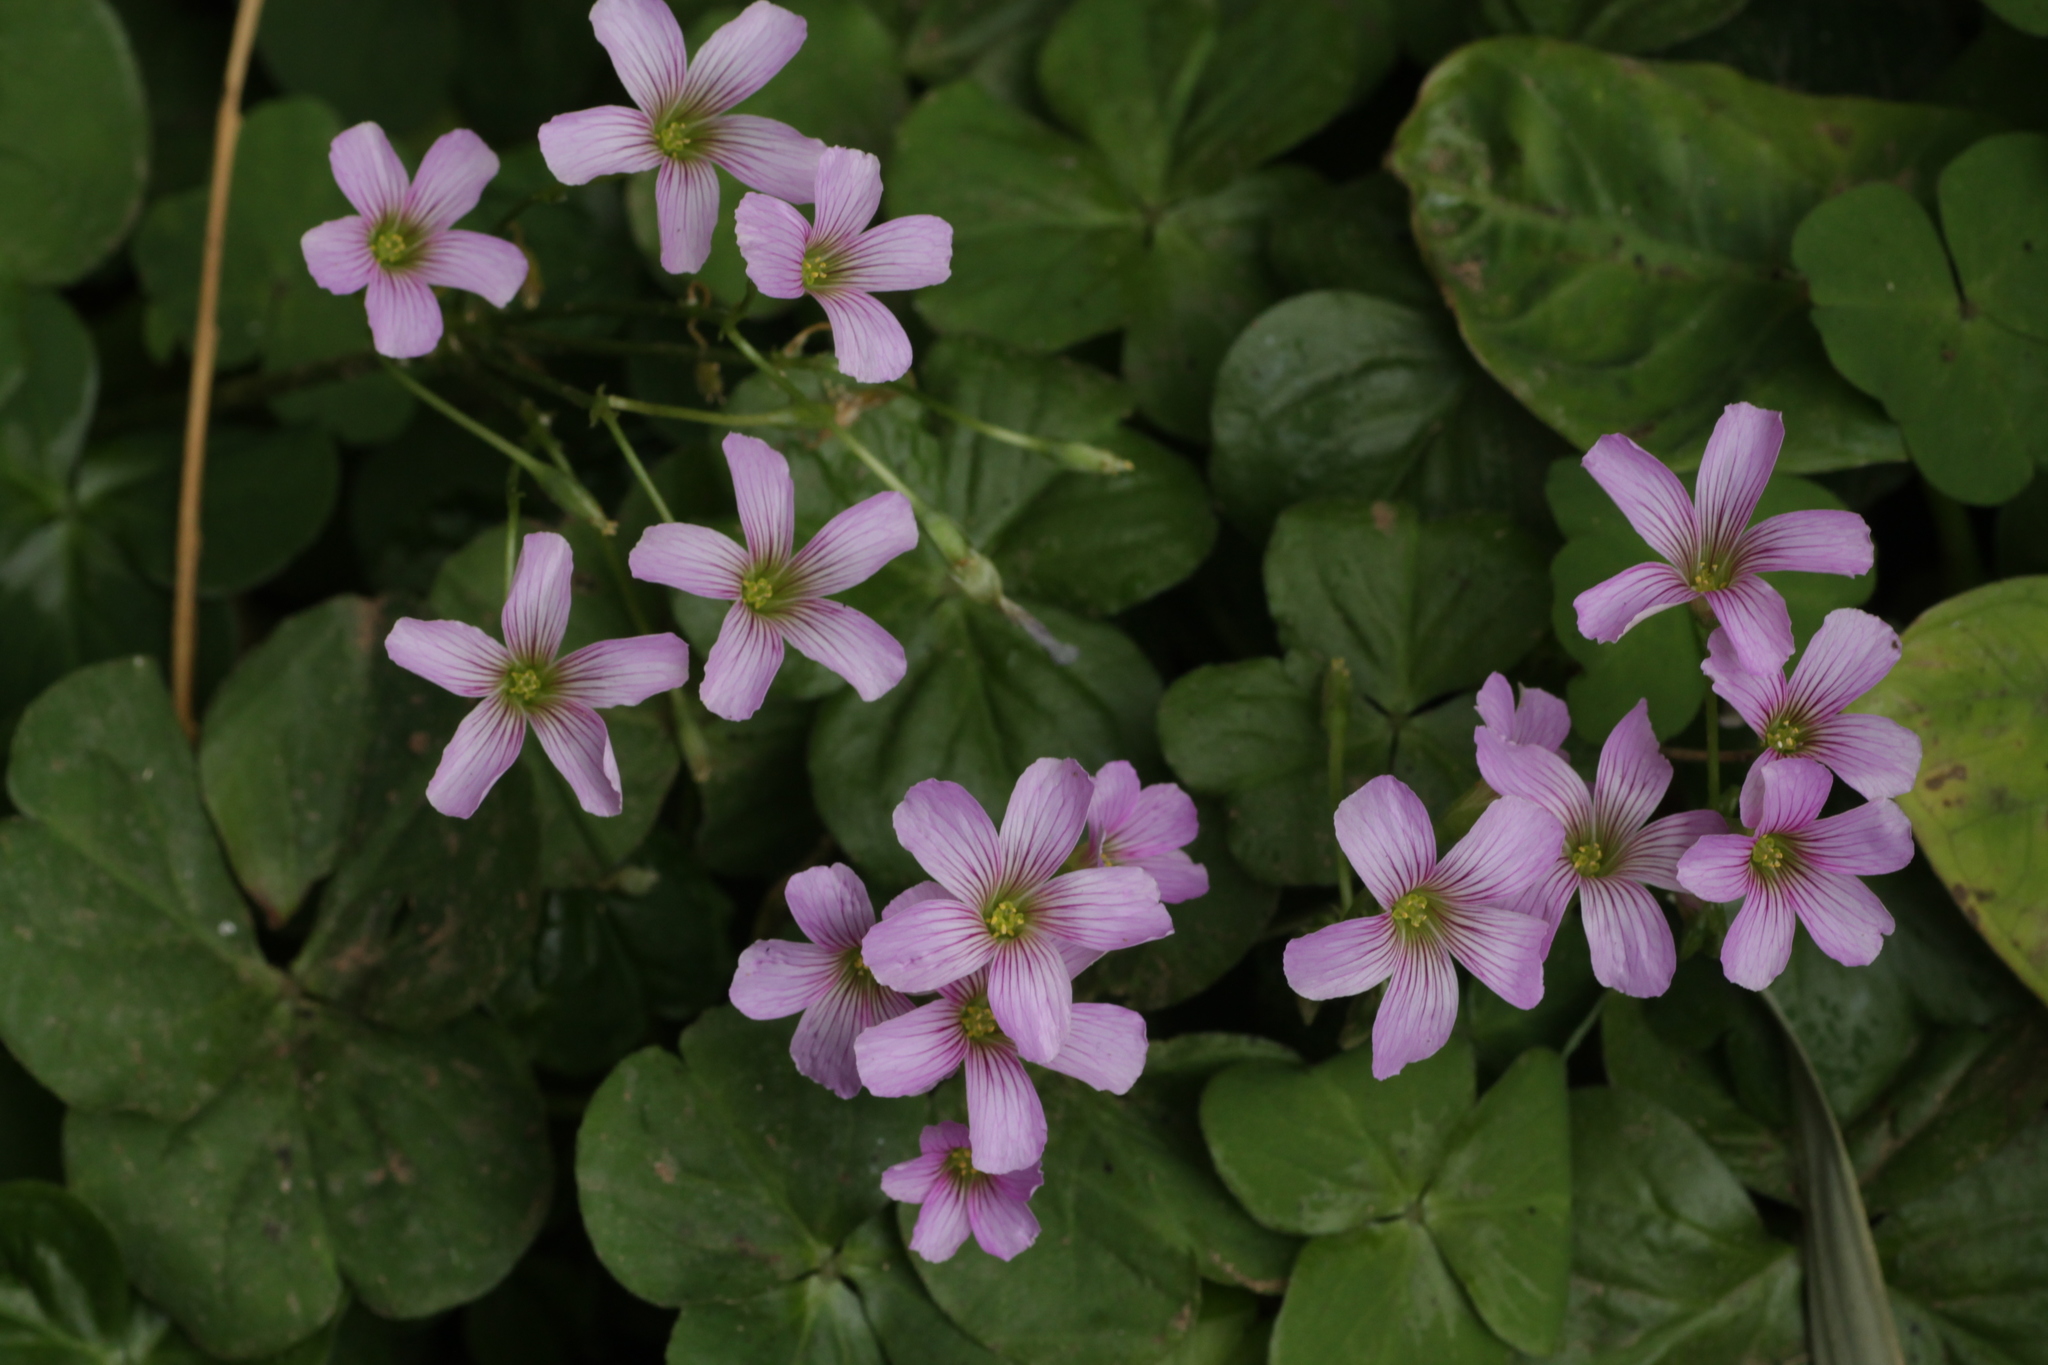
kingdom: Plantae
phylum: Tracheophyta
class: Magnoliopsida
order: Oxalidales
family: Oxalidaceae
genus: Oxalis
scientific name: Oxalis debilis
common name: Large-flowered pink-sorrel
